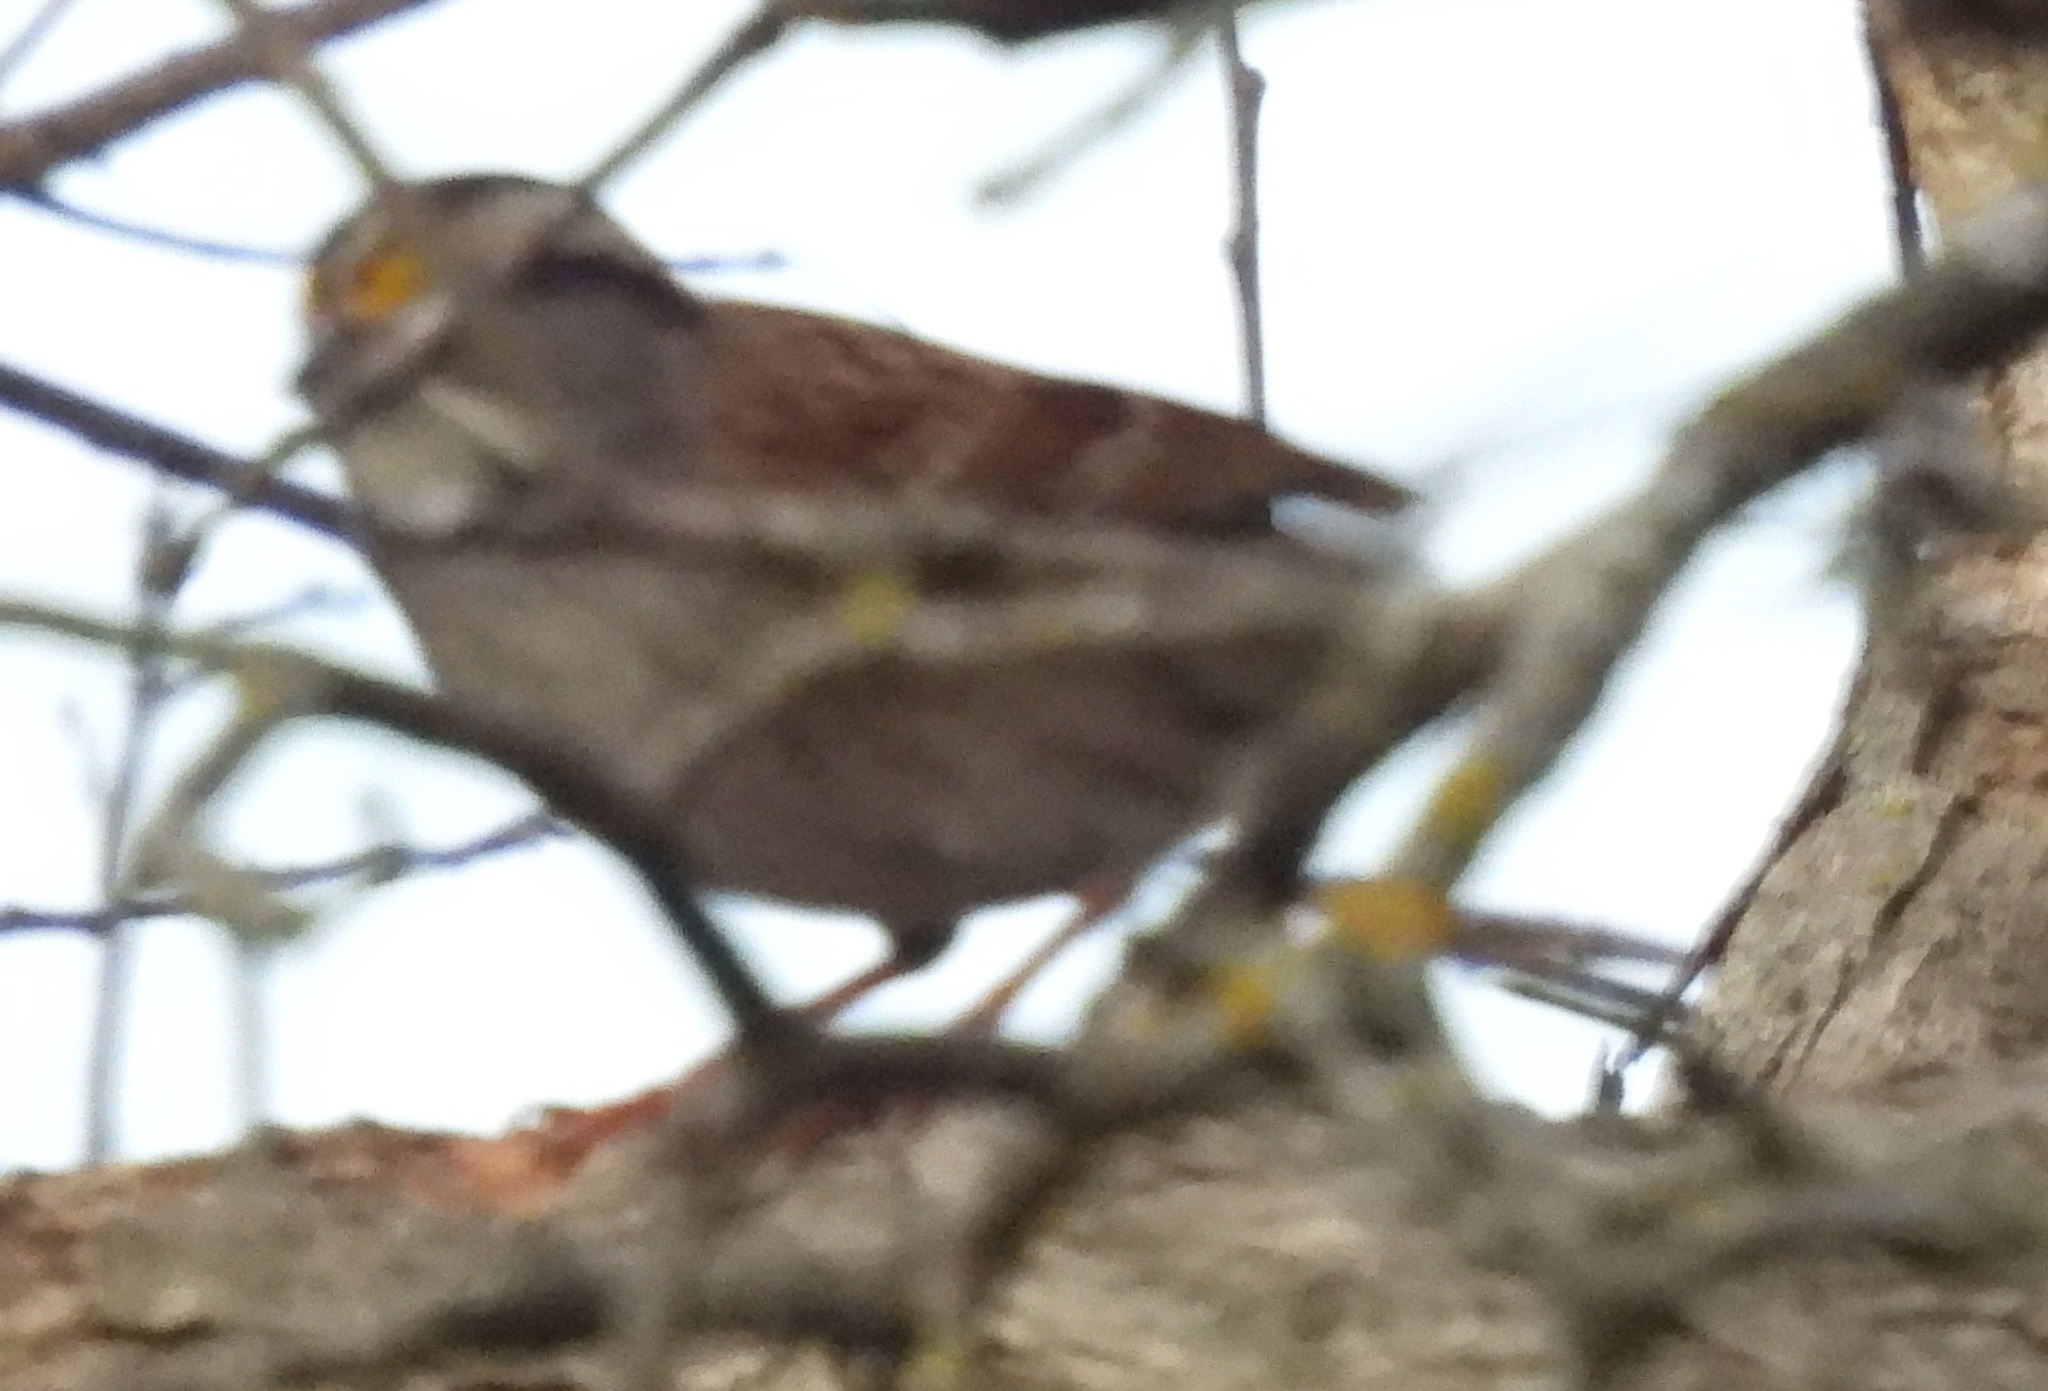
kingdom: Animalia
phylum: Chordata
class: Aves
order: Passeriformes
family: Passerellidae
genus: Zonotrichia
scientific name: Zonotrichia albicollis
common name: White-throated sparrow
